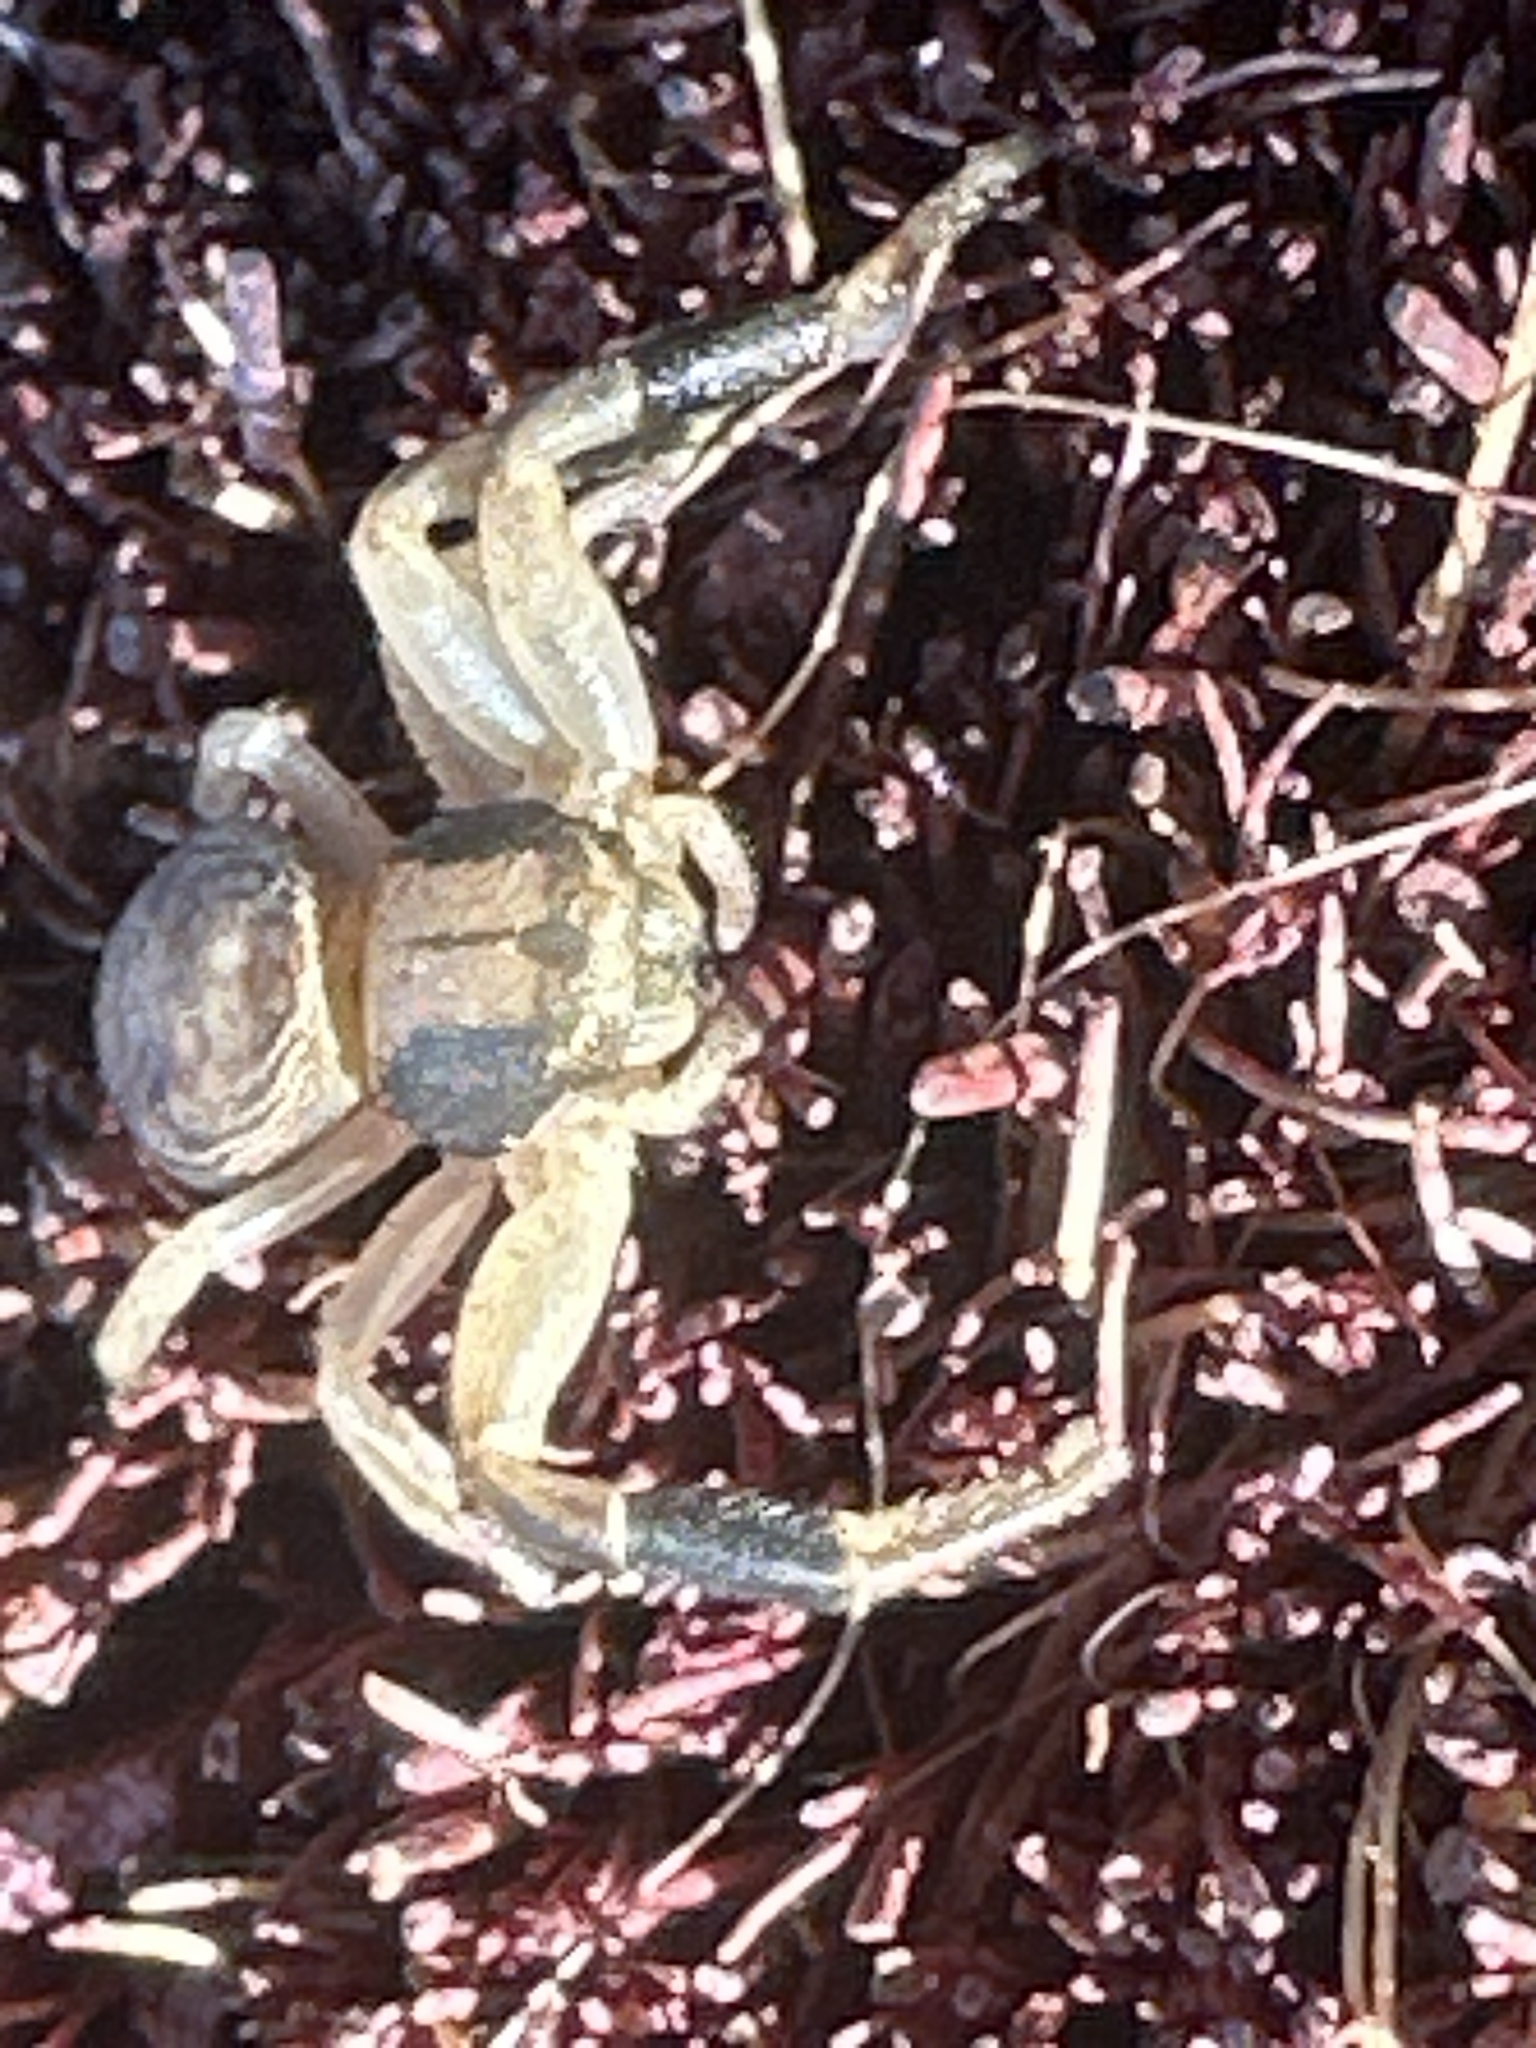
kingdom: Animalia
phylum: Arthropoda
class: Arachnida
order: Araneae
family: Thomisidae
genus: Xysticus
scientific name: Xysticus texanus
